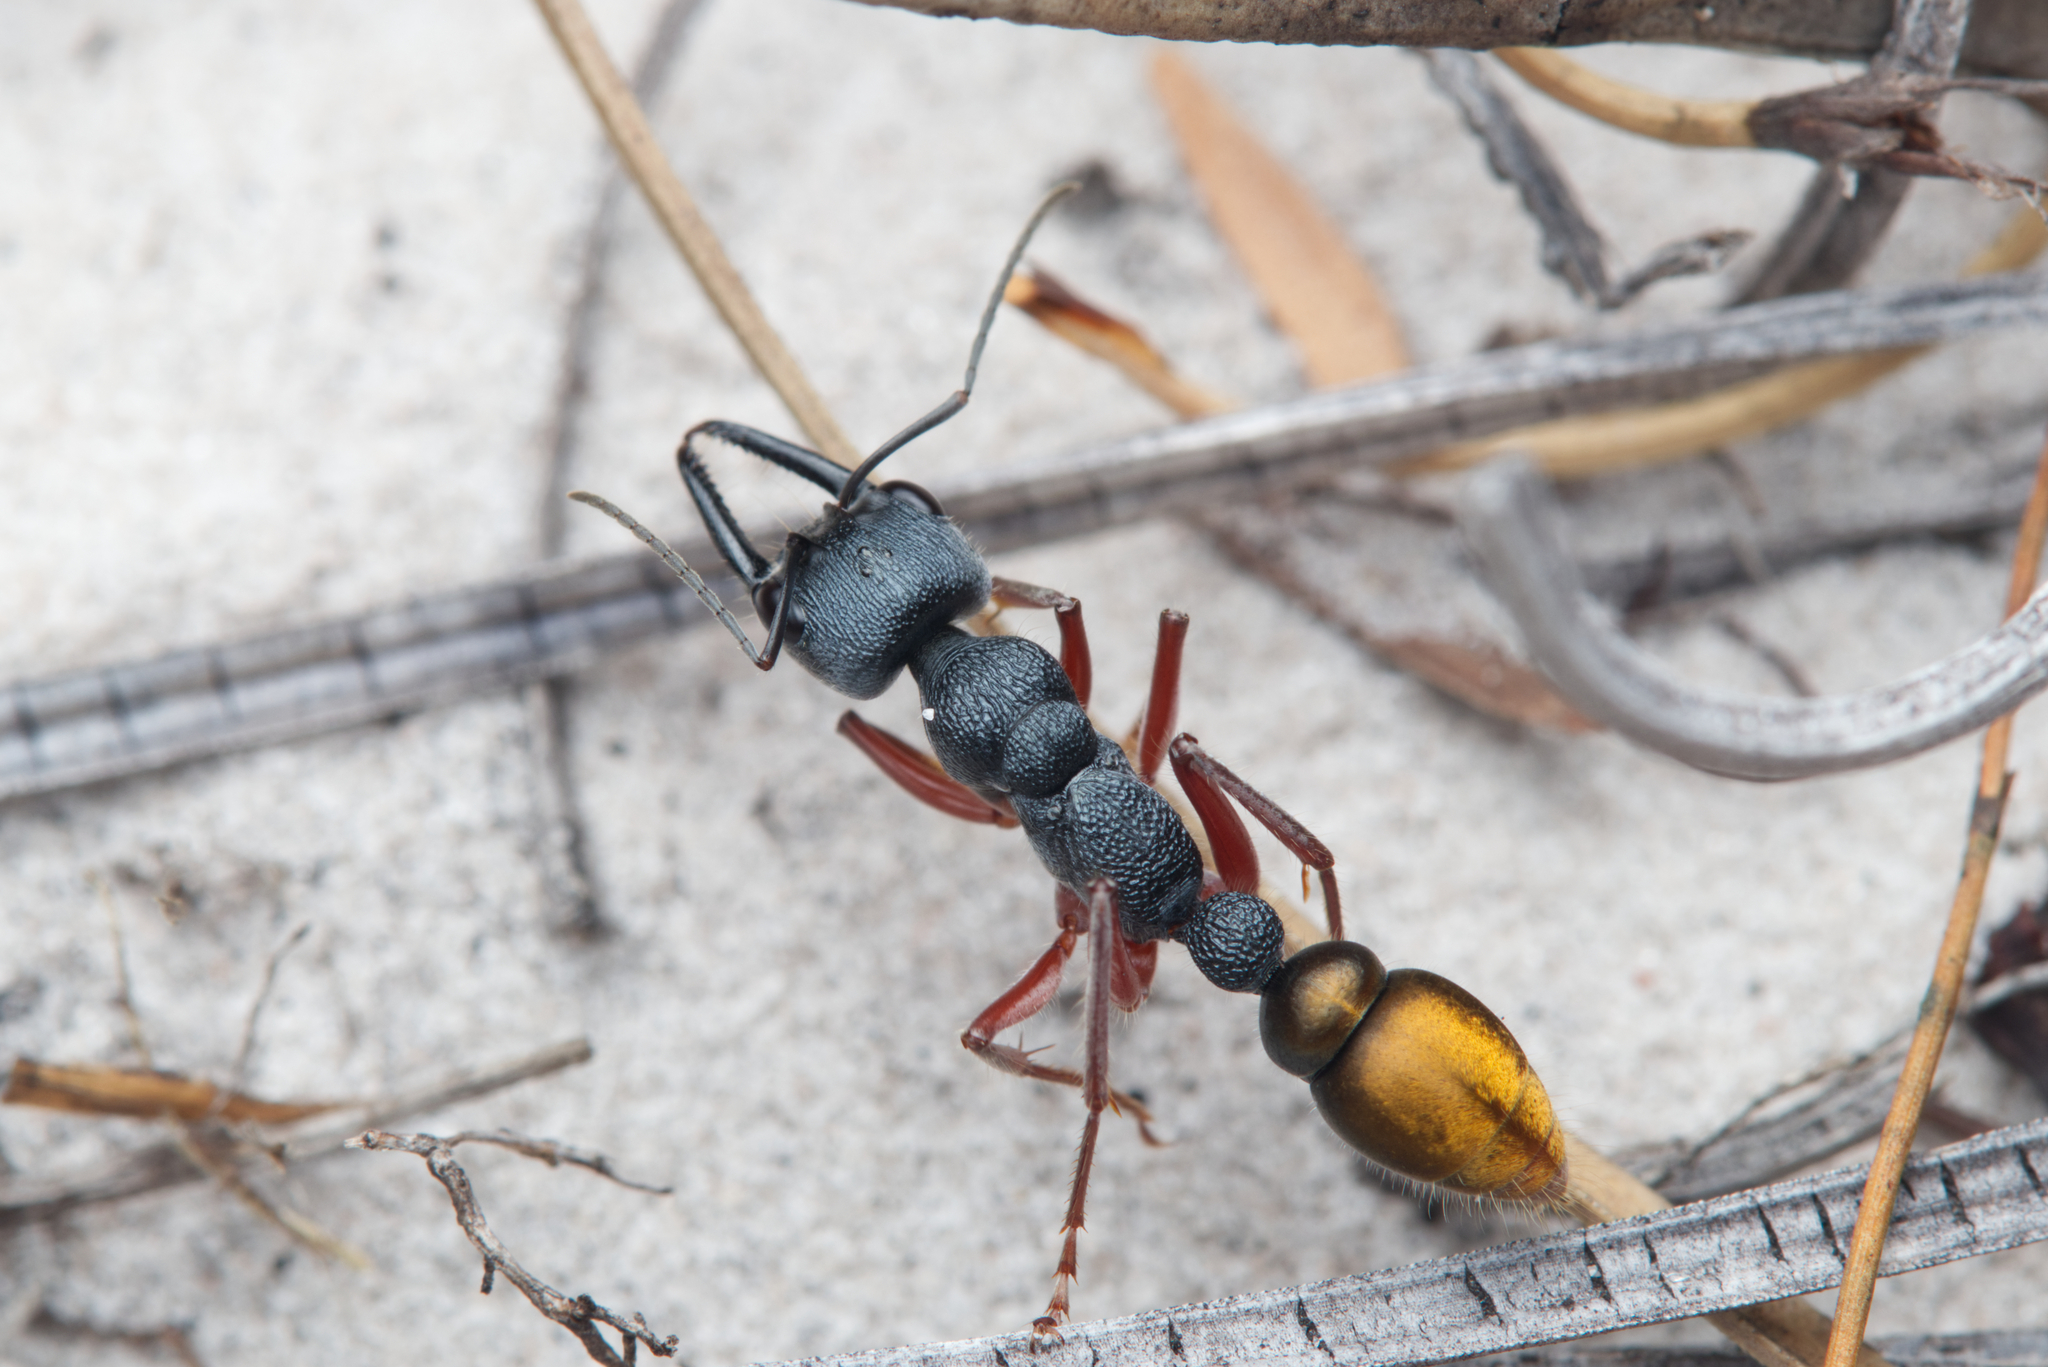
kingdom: Animalia
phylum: Arthropoda
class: Insecta
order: Hymenoptera
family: Formicidae
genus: Myrmecia
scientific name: Myrmecia fulviculis
